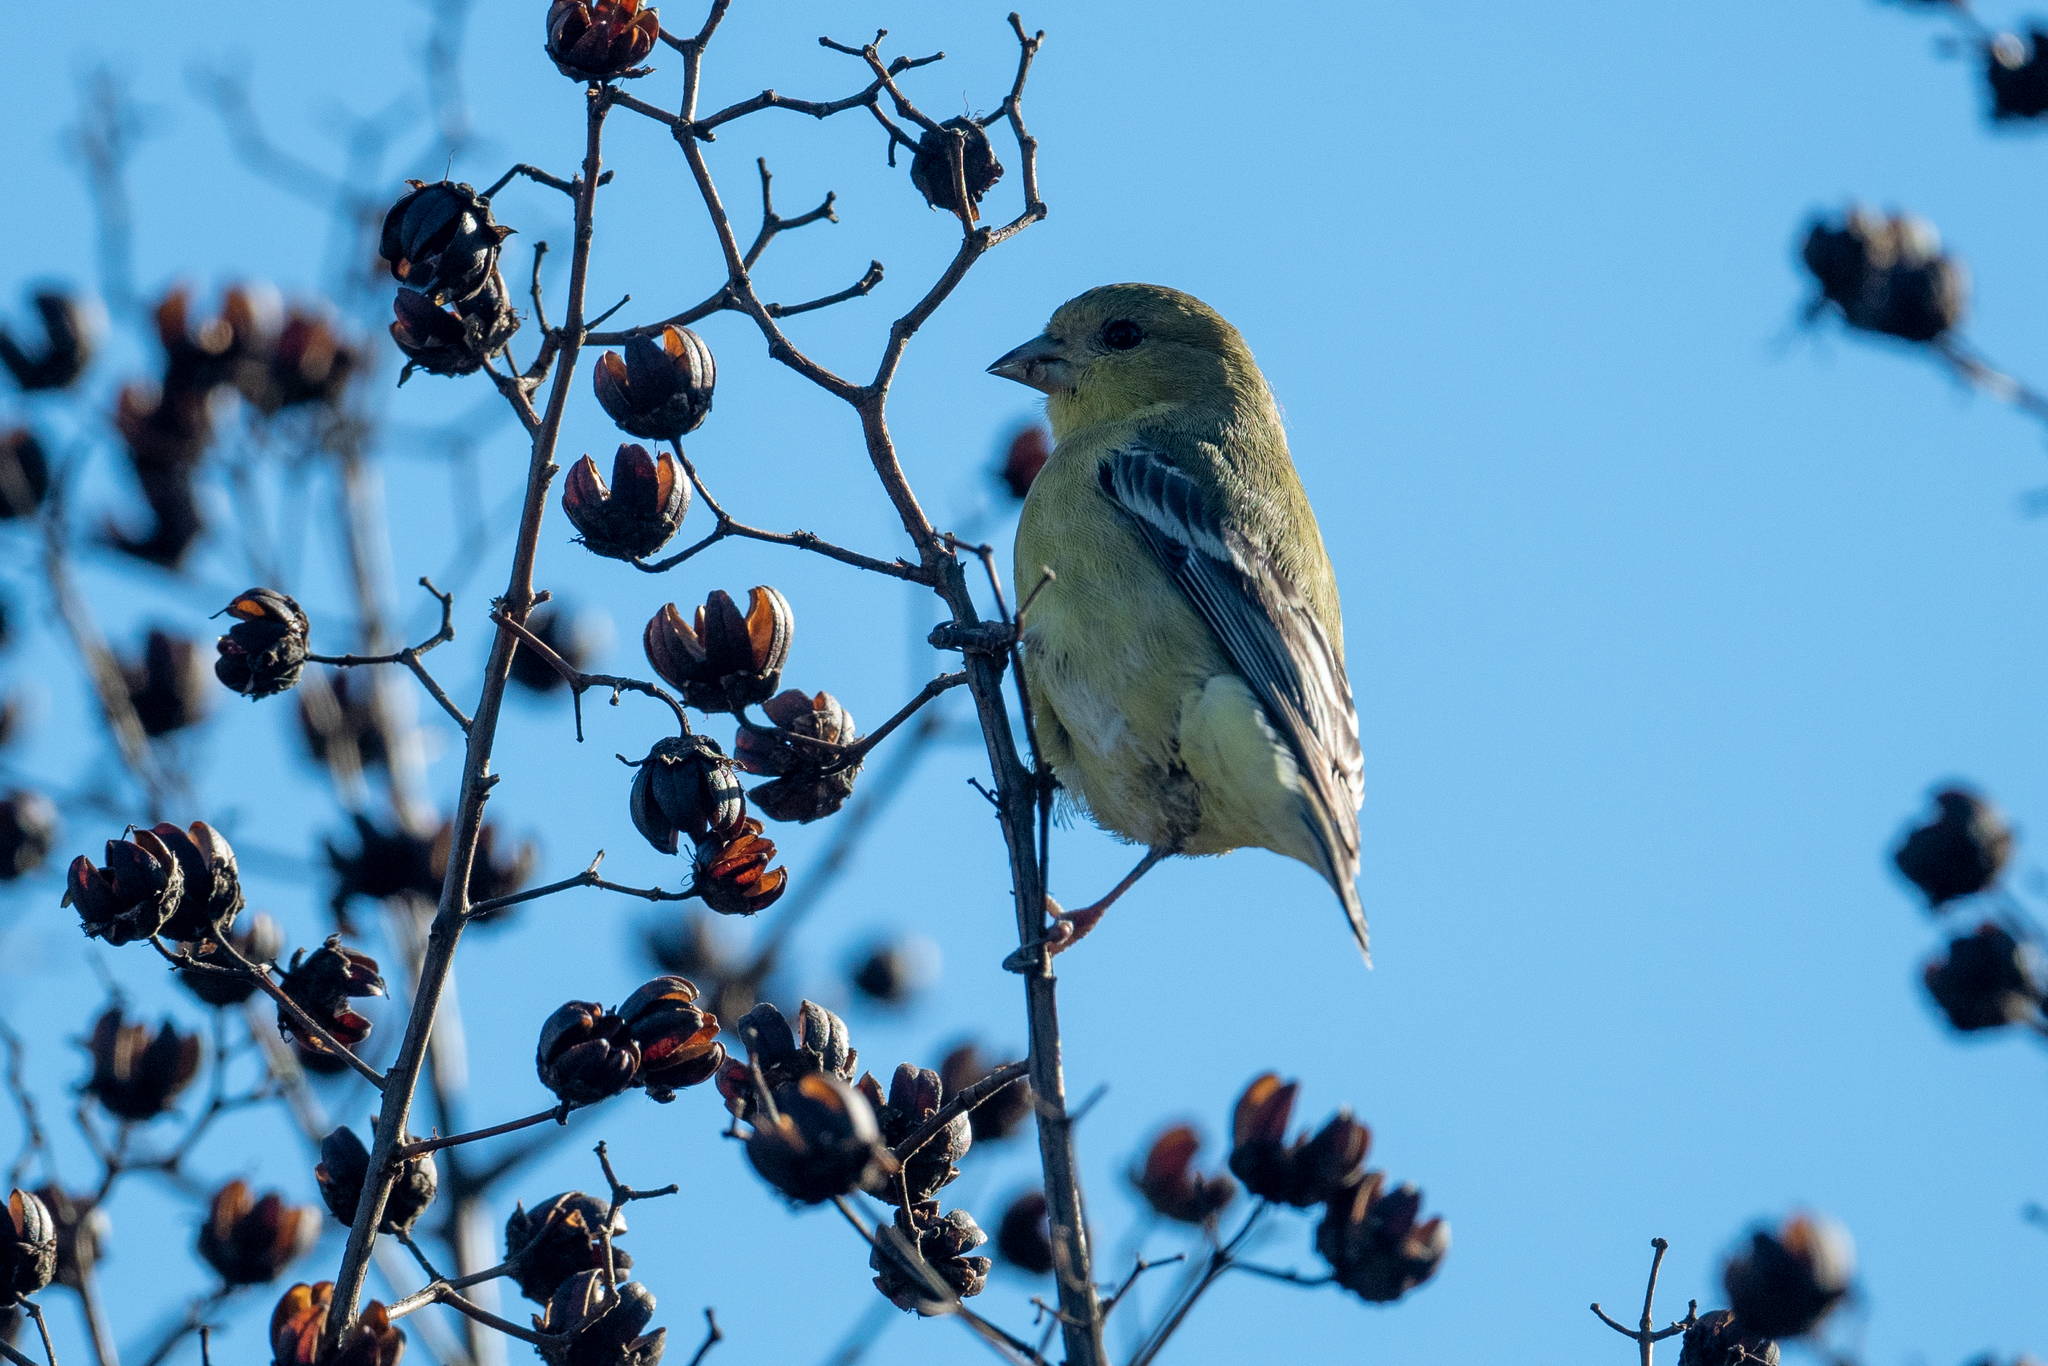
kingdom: Animalia
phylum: Chordata
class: Aves
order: Passeriformes
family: Fringillidae
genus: Spinus
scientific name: Spinus psaltria
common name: Lesser goldfinch
